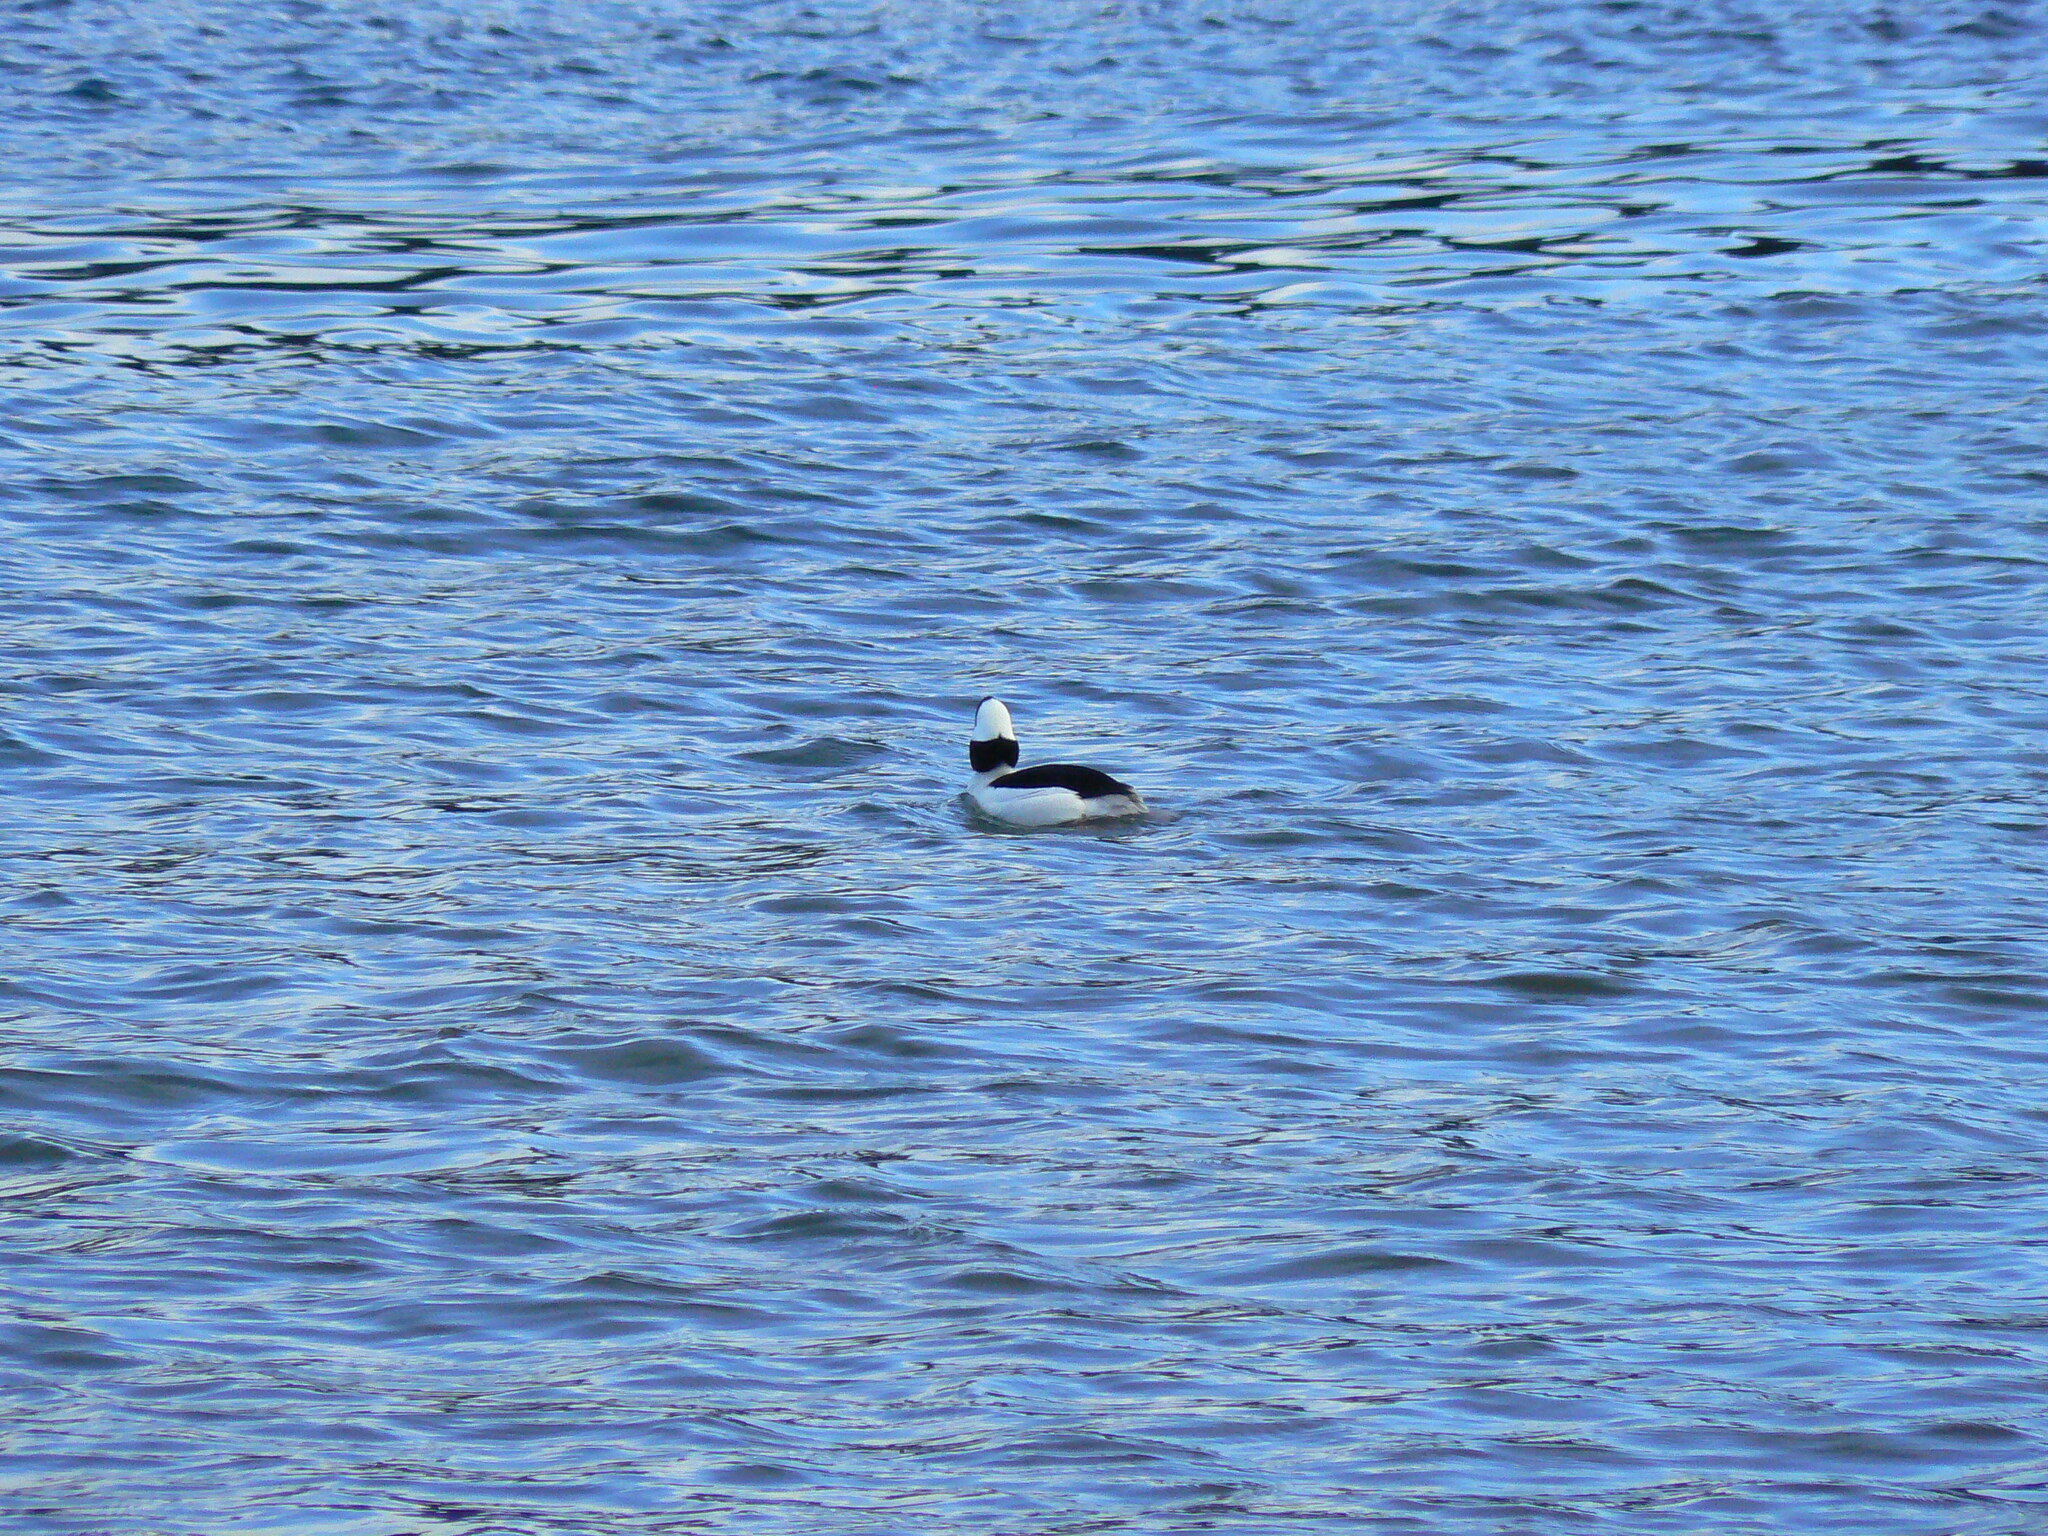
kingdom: Animalia
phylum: Chordata
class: Aves
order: Anseriformes
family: Anatidae
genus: Bucephala
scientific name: Bucephala albeola
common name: Bufflehead
